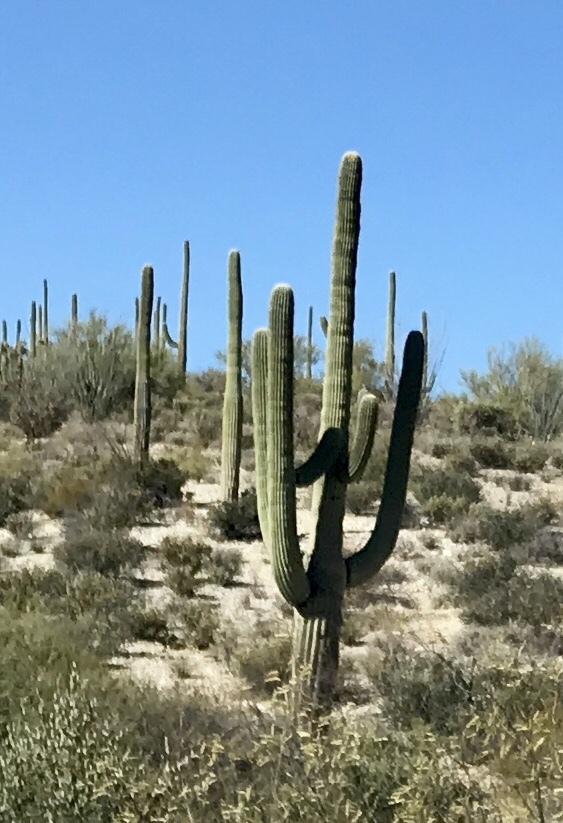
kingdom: Plantae
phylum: Tracheophyta
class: Magnoliopsida
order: Caryophyllales
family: Cactaceae
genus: Carnegiea
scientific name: Carnegiea gigantea
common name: Saguaro
